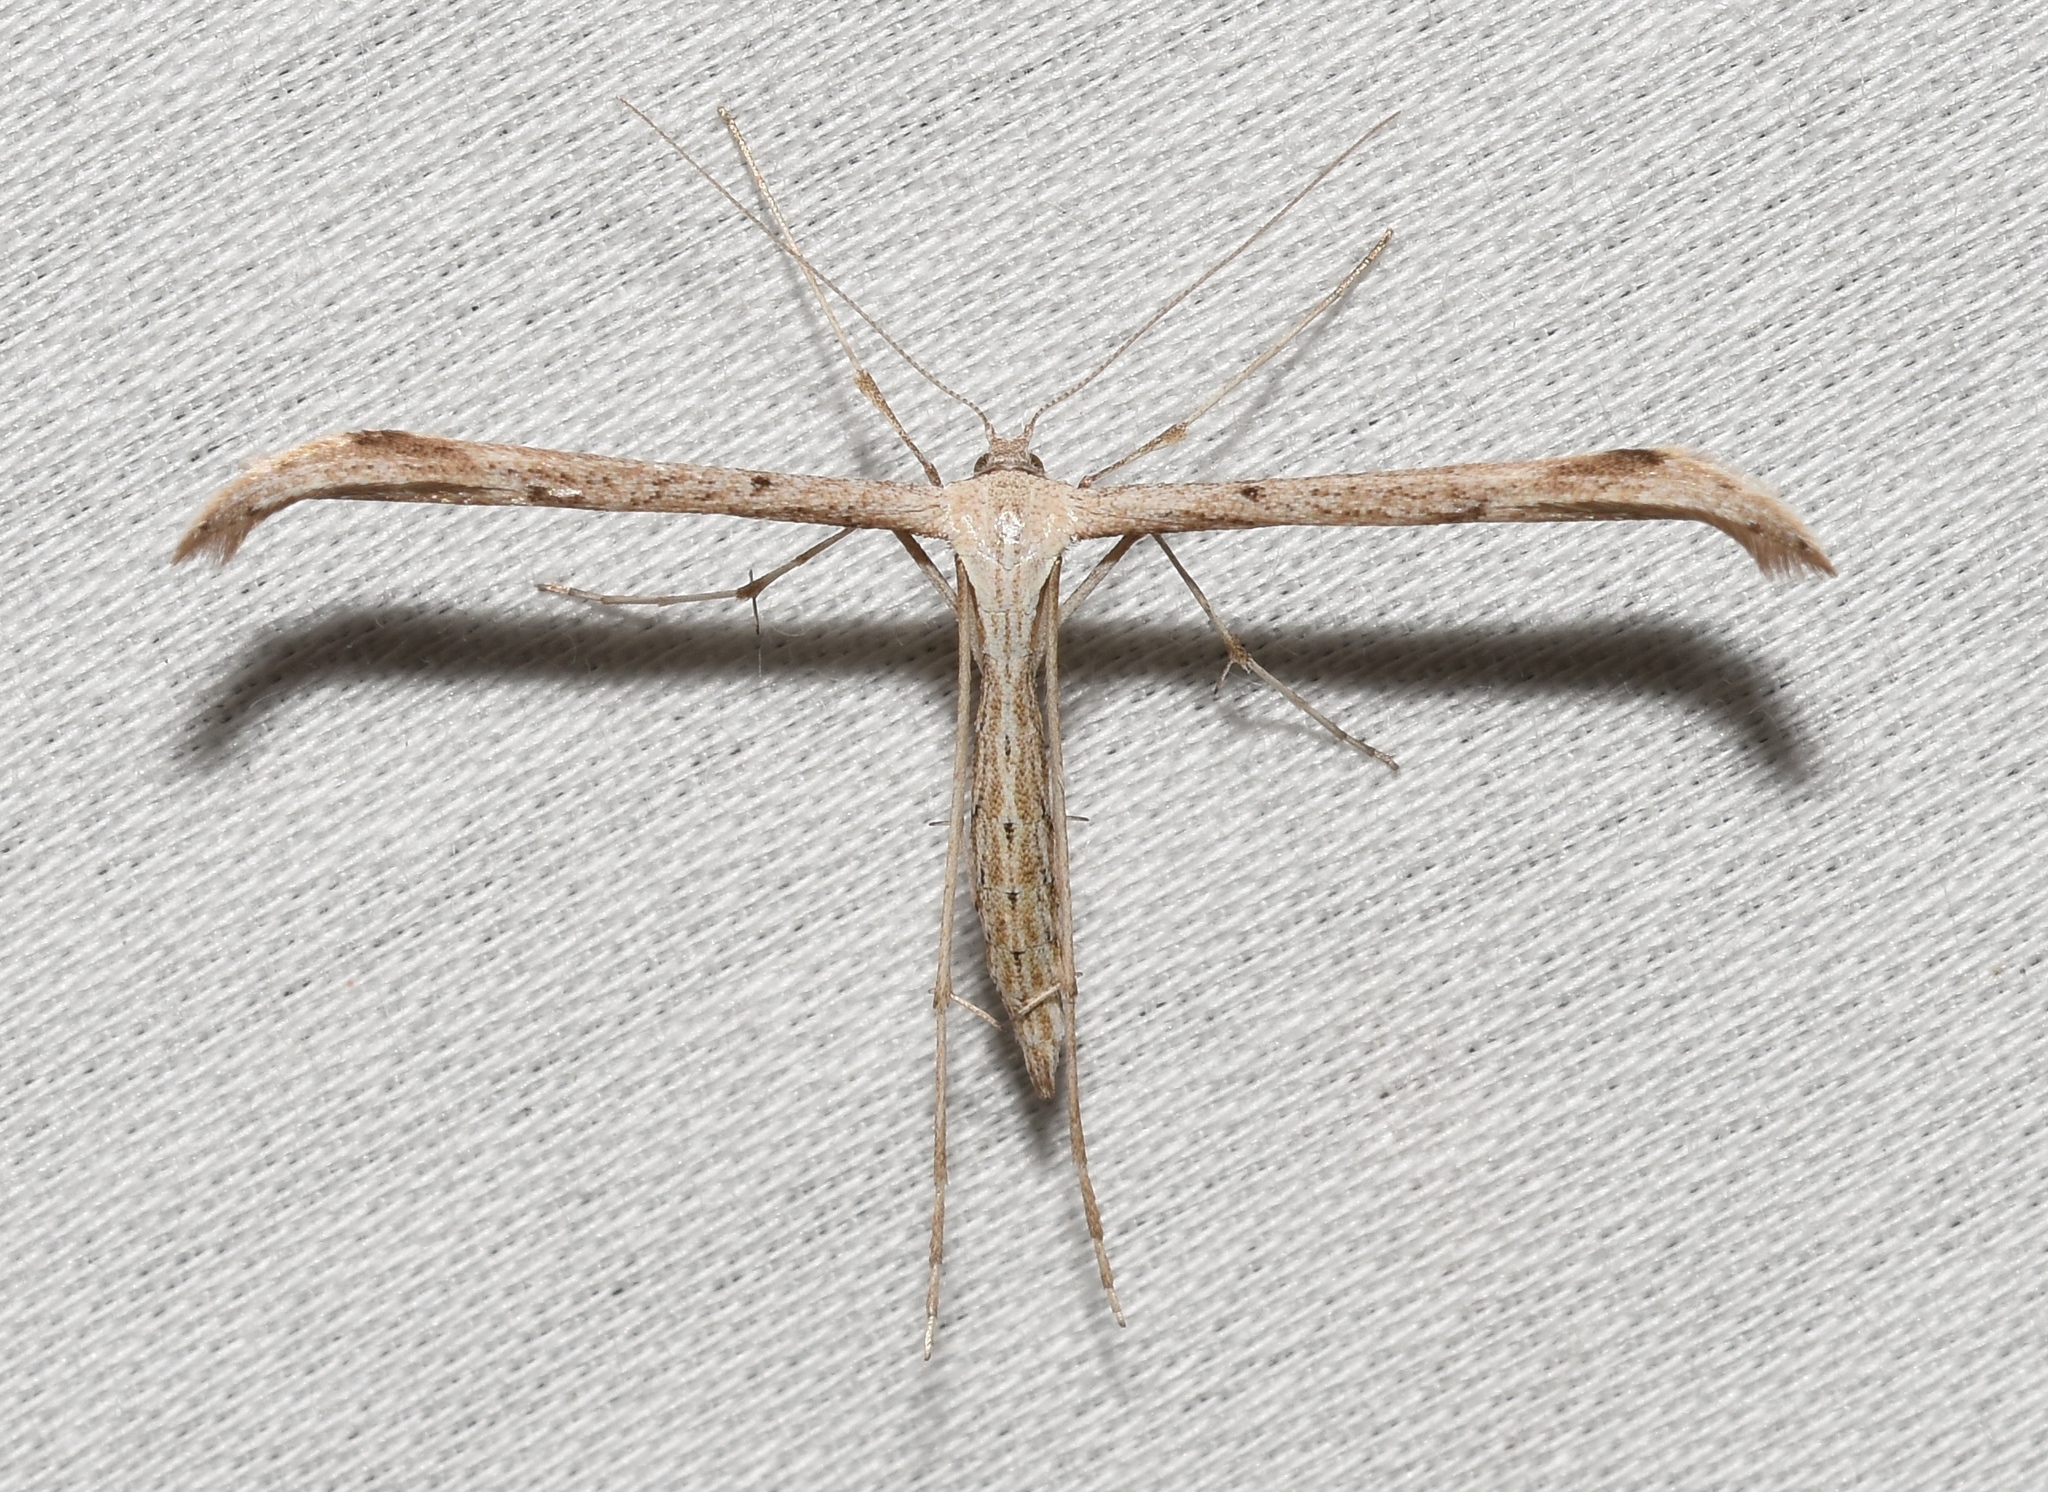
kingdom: Animalia
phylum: Arthropoda
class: Insecta
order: Lepidoptera
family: Pterophoridae
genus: Emmelina
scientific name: Emmelina monodactyla
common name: Common plume
